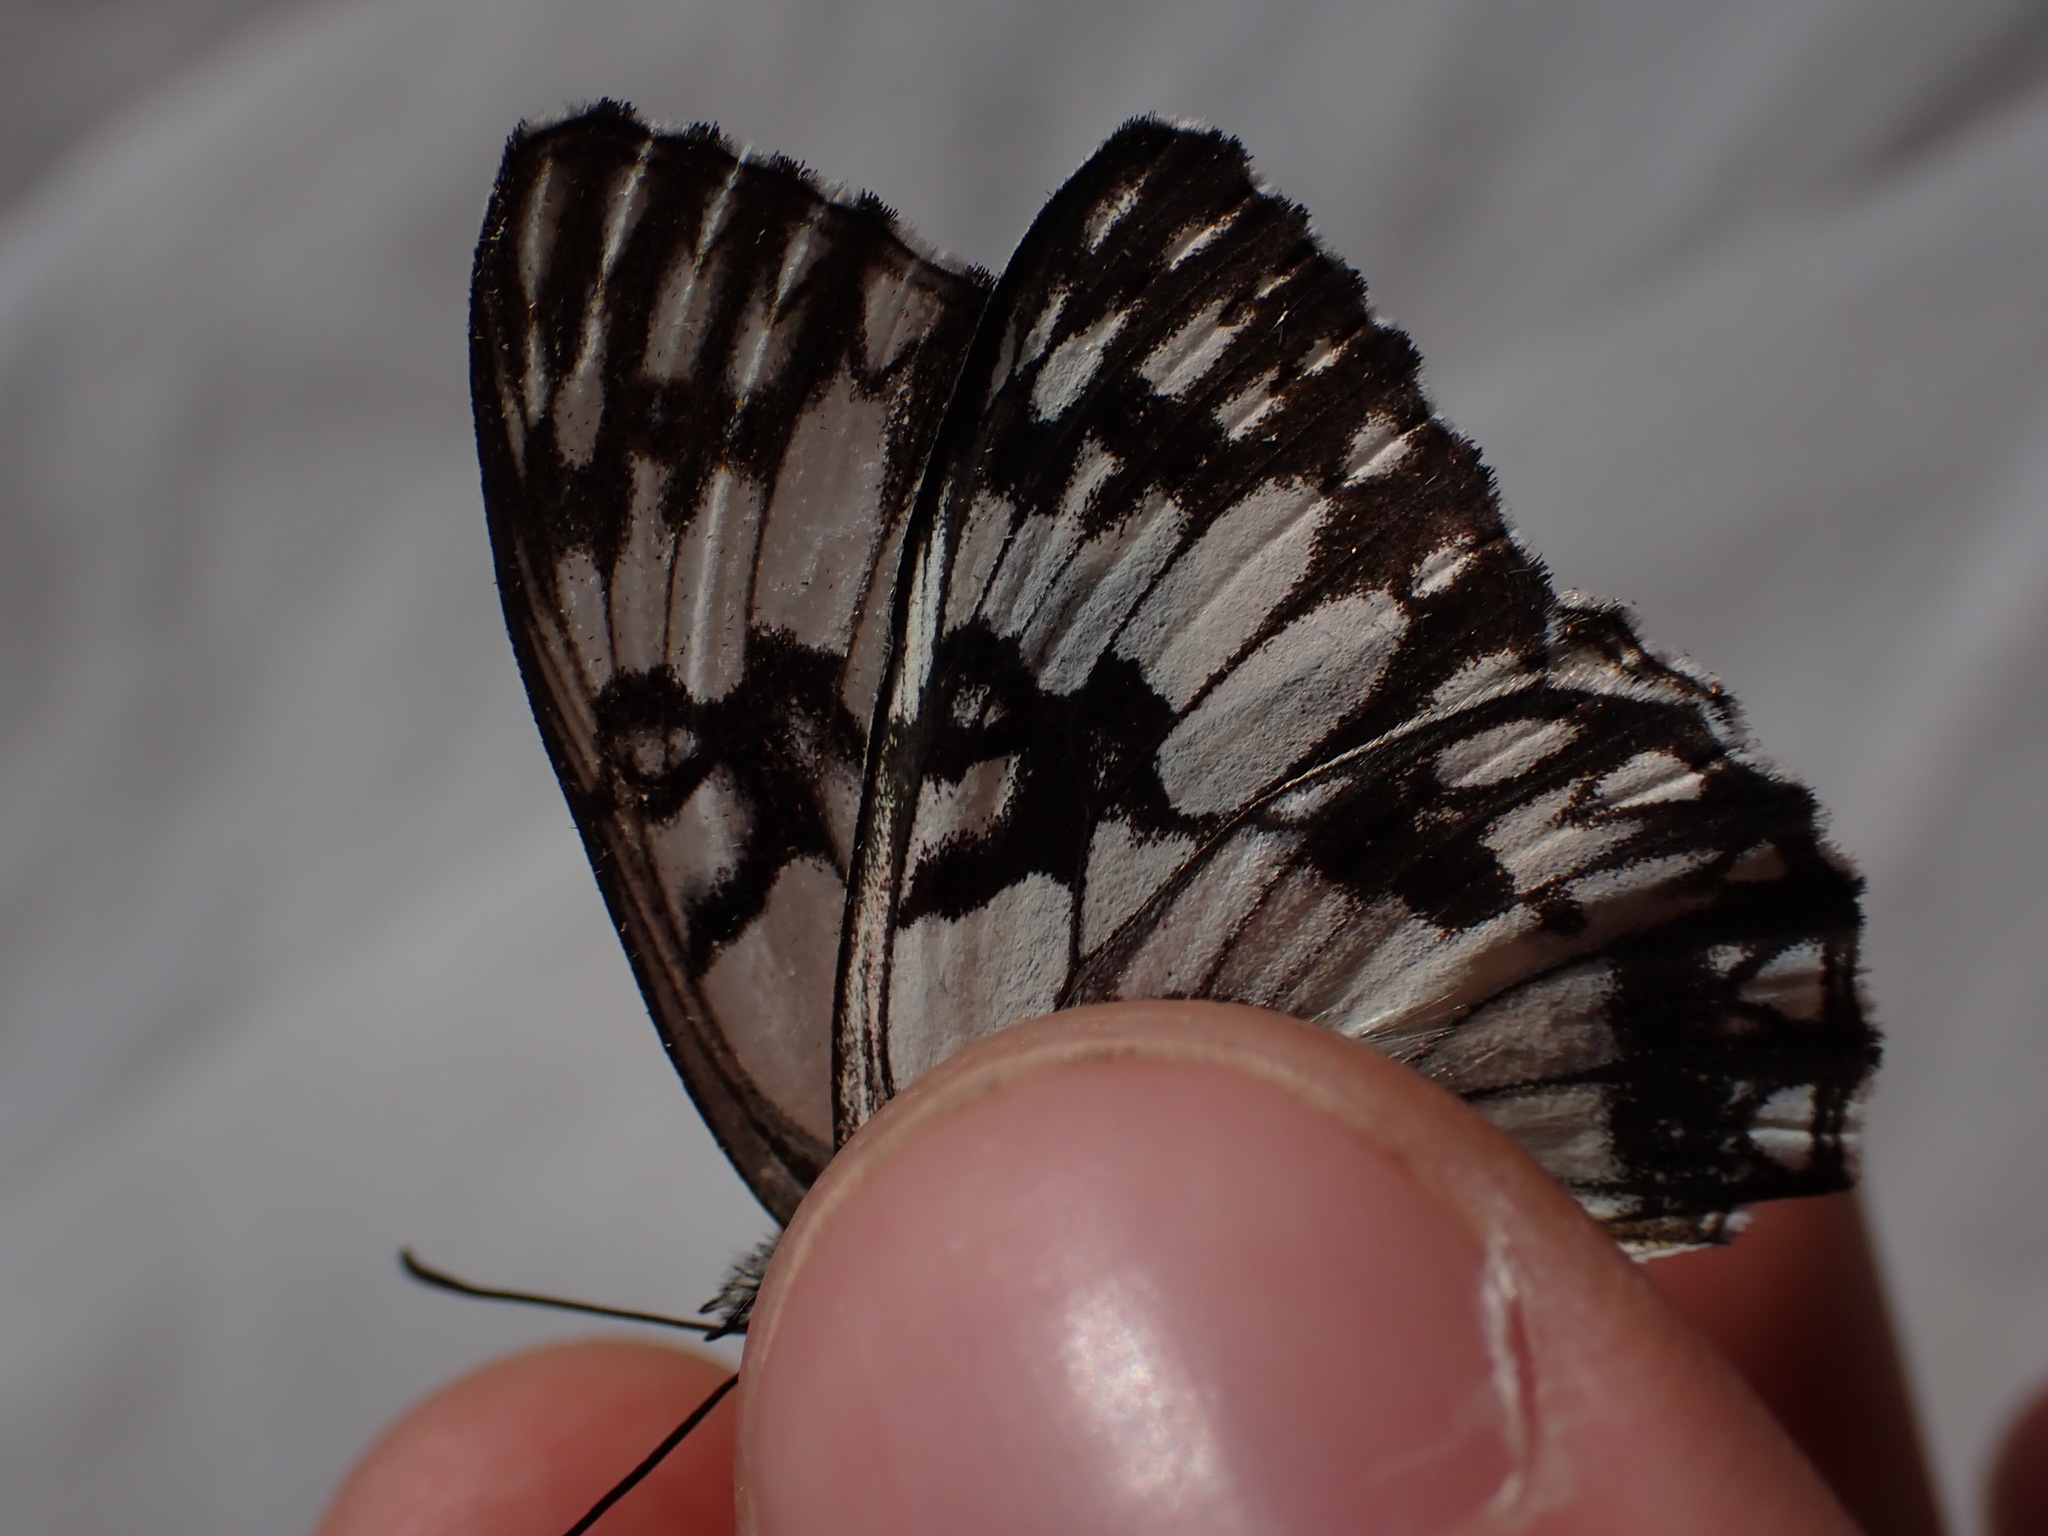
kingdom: Animalia
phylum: Arthropoda
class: Insecta
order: Lepidoptera
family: Nymphalidae
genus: Melanargia
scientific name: Melanargia occitanica
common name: Western marbled white
